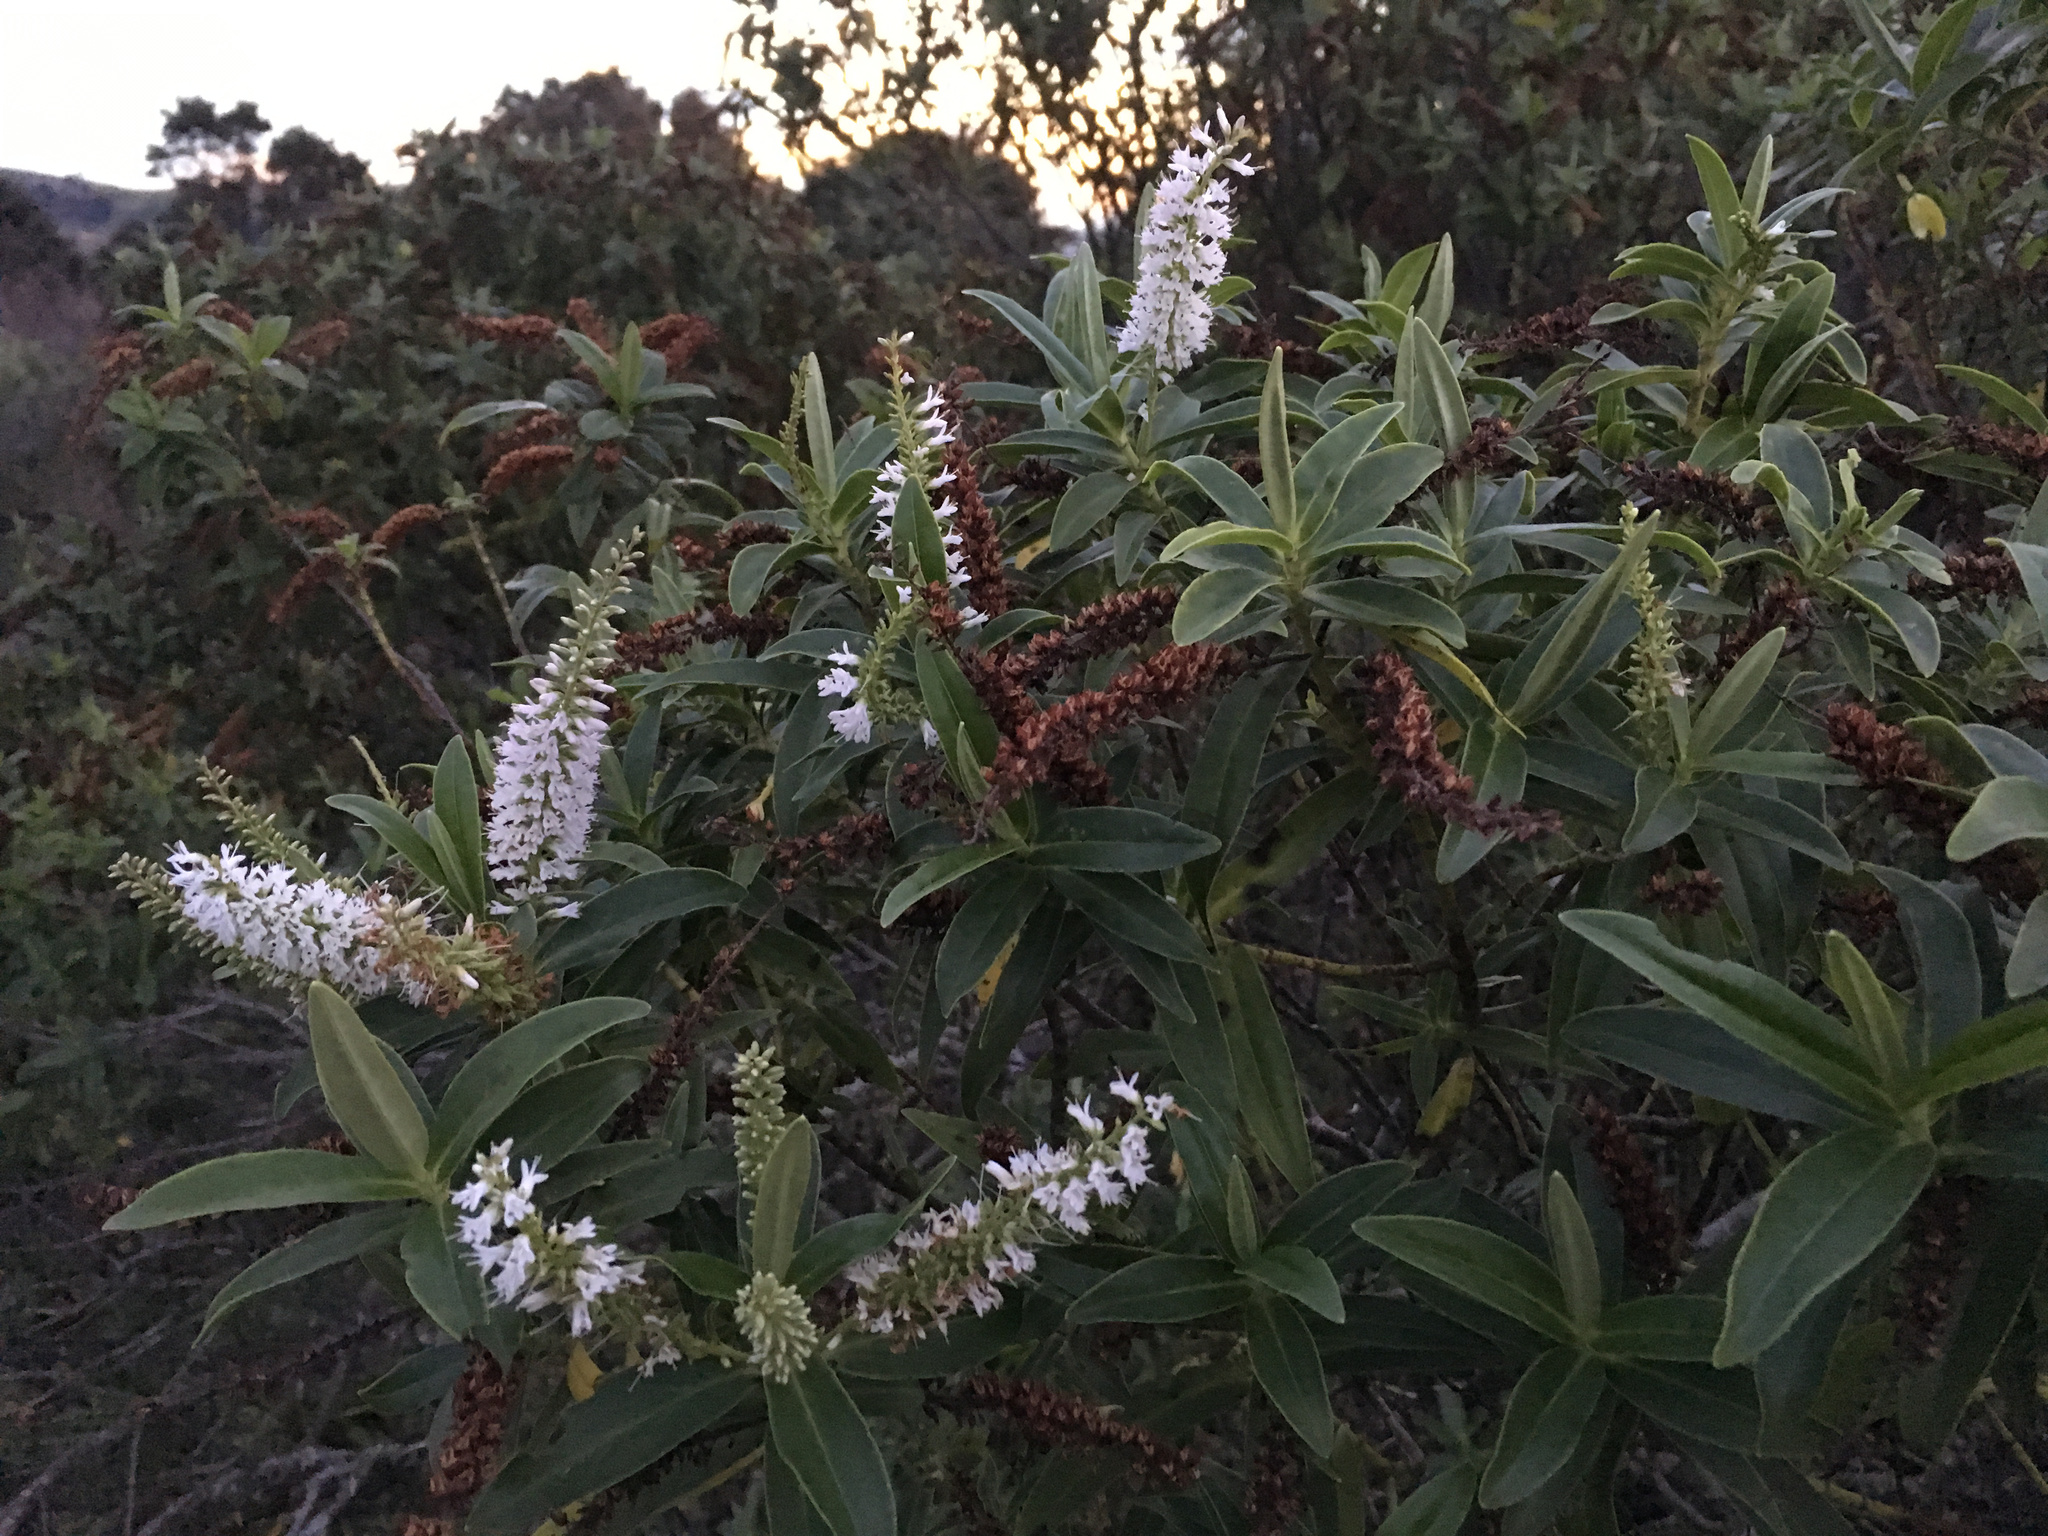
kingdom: Plantae
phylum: Tracheophyta
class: Magnoliopsida
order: Lamiales
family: Plantaginaceae
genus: Veronica
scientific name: Veronica salicifolia
